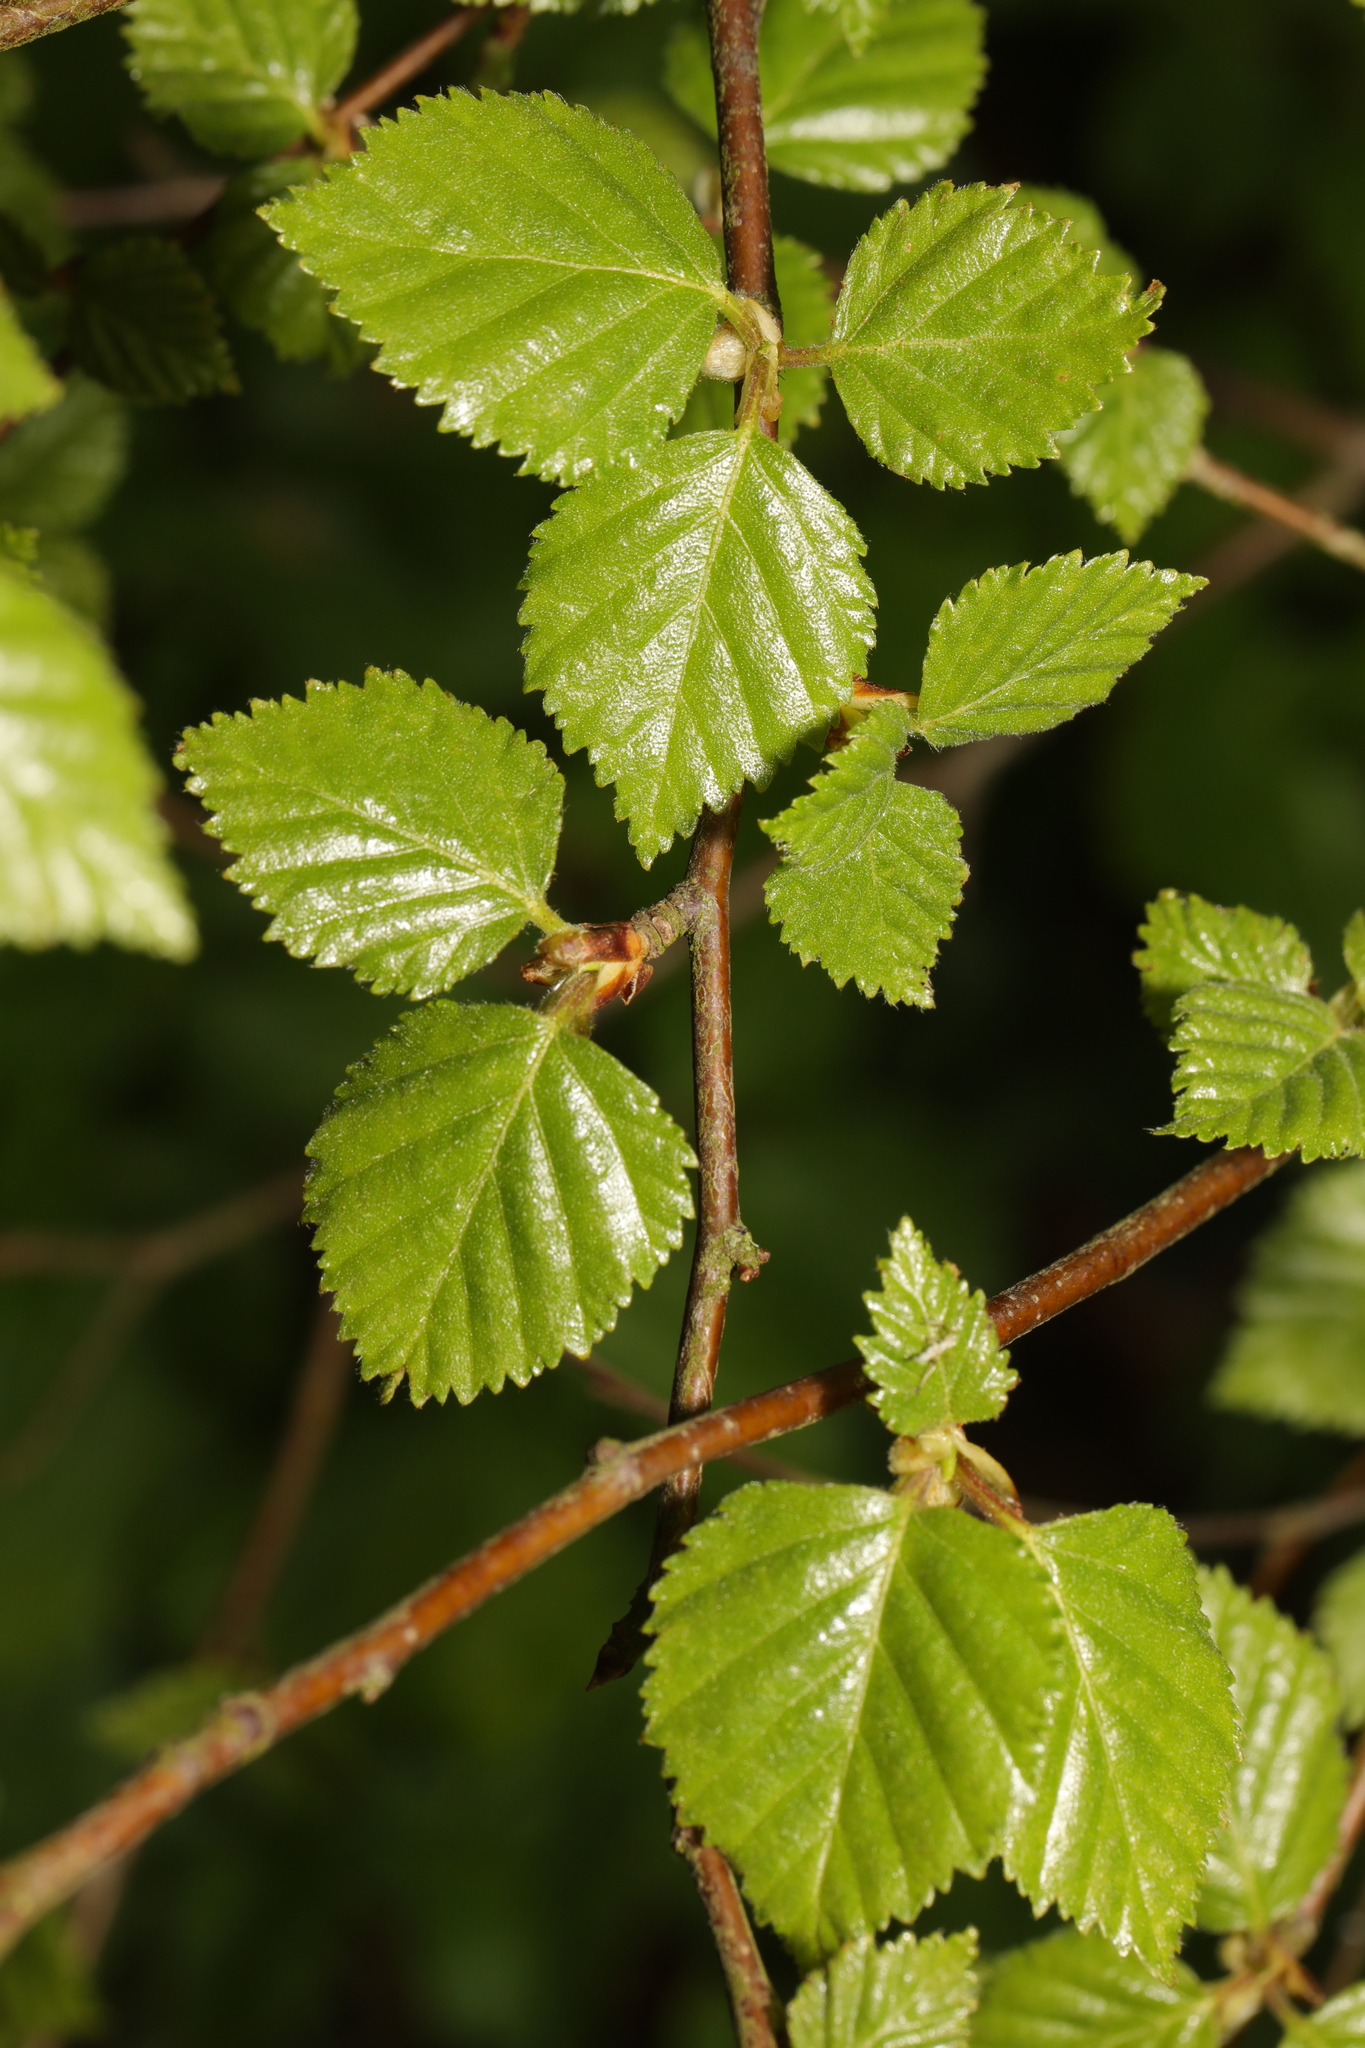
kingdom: Plantae
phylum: Tracheophyta
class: Magnoliopsida
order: Fagales
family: Betulaceae
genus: Betula
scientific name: Betula pubescens
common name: Downy birch
